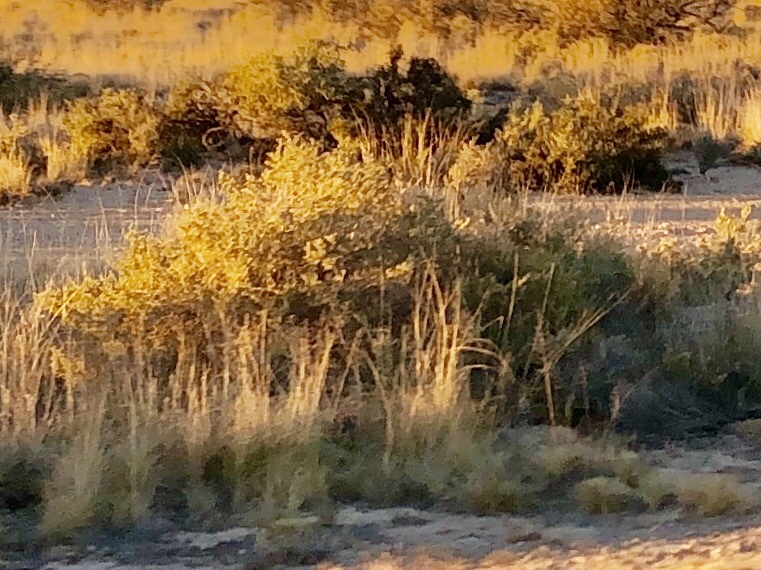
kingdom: Plantae
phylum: Tracheophyta
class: Magnoliopsida
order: Caryophyllales
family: Amaranthaceae
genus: Atriplex
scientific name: Atriplex canescens
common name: Four-wing saltbush
